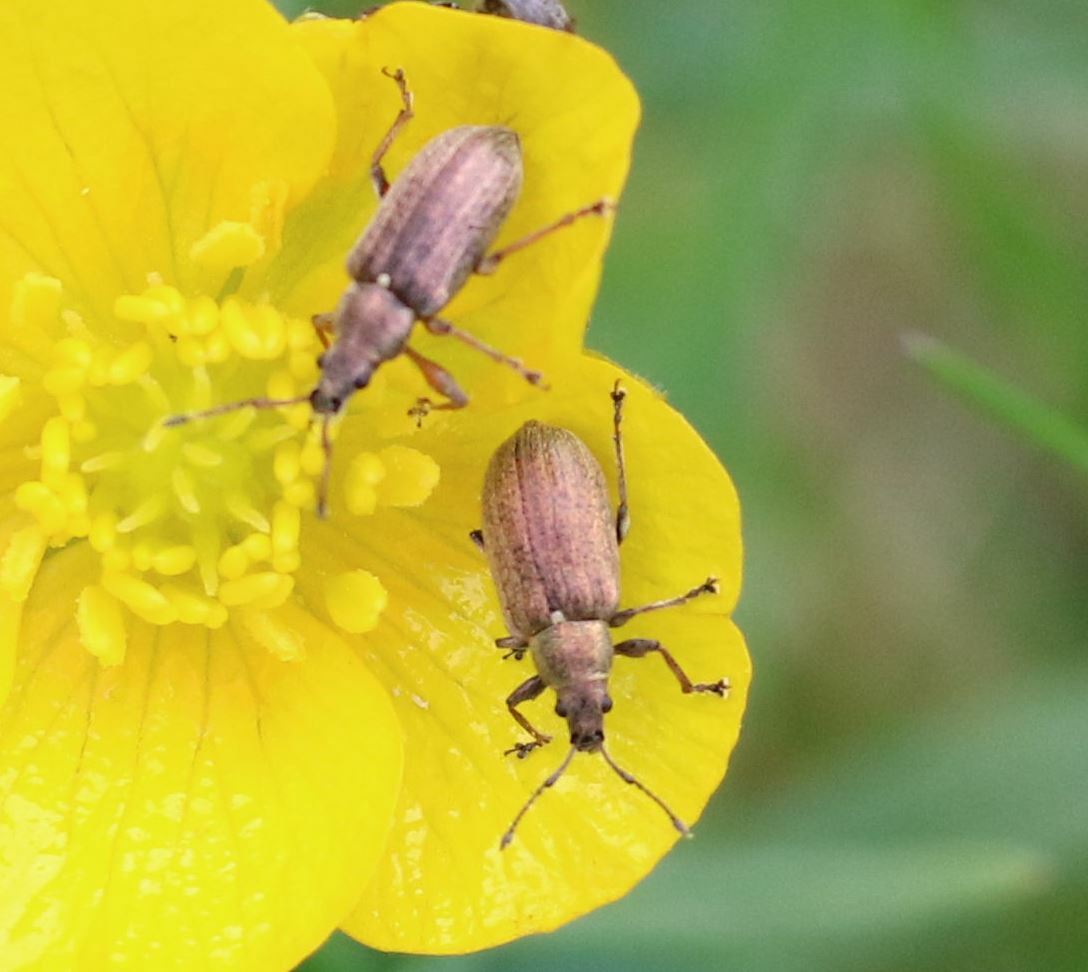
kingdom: Animalia
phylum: Arthropoda
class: Insecta
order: Coleoptera
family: Curculionidae
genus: Phyllobius
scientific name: Phyllobius pyri
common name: Common leaf weevil
